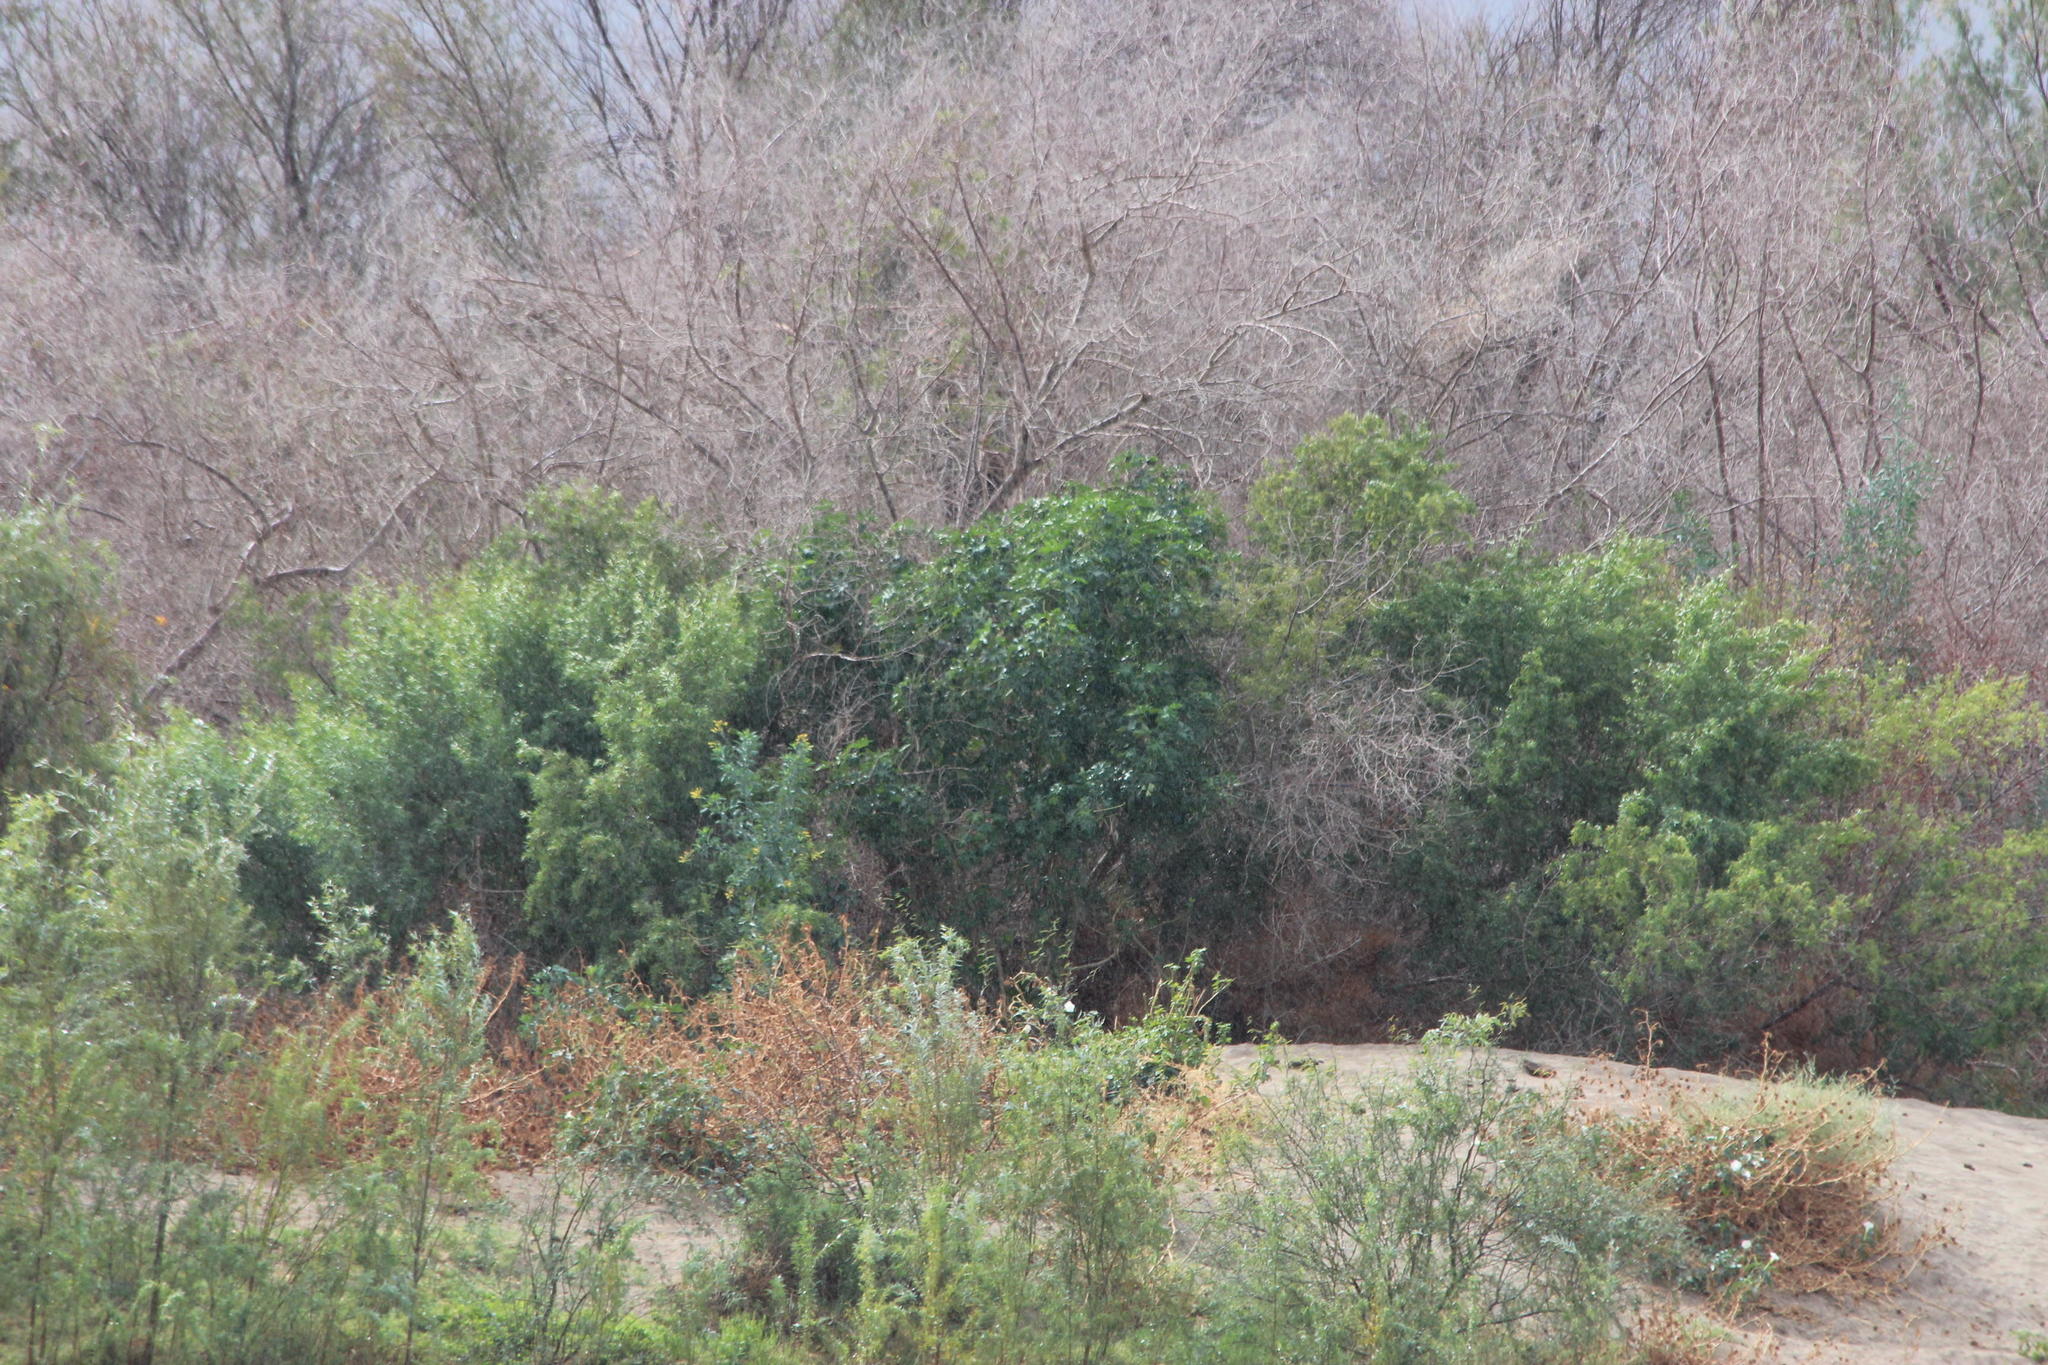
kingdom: Plantae
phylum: Tracheophyta
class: Magnoliopsida
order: Malpighiales
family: Euphorbiaceae
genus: Ricinus
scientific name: Ricinus communis
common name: Castor-oil-plant
